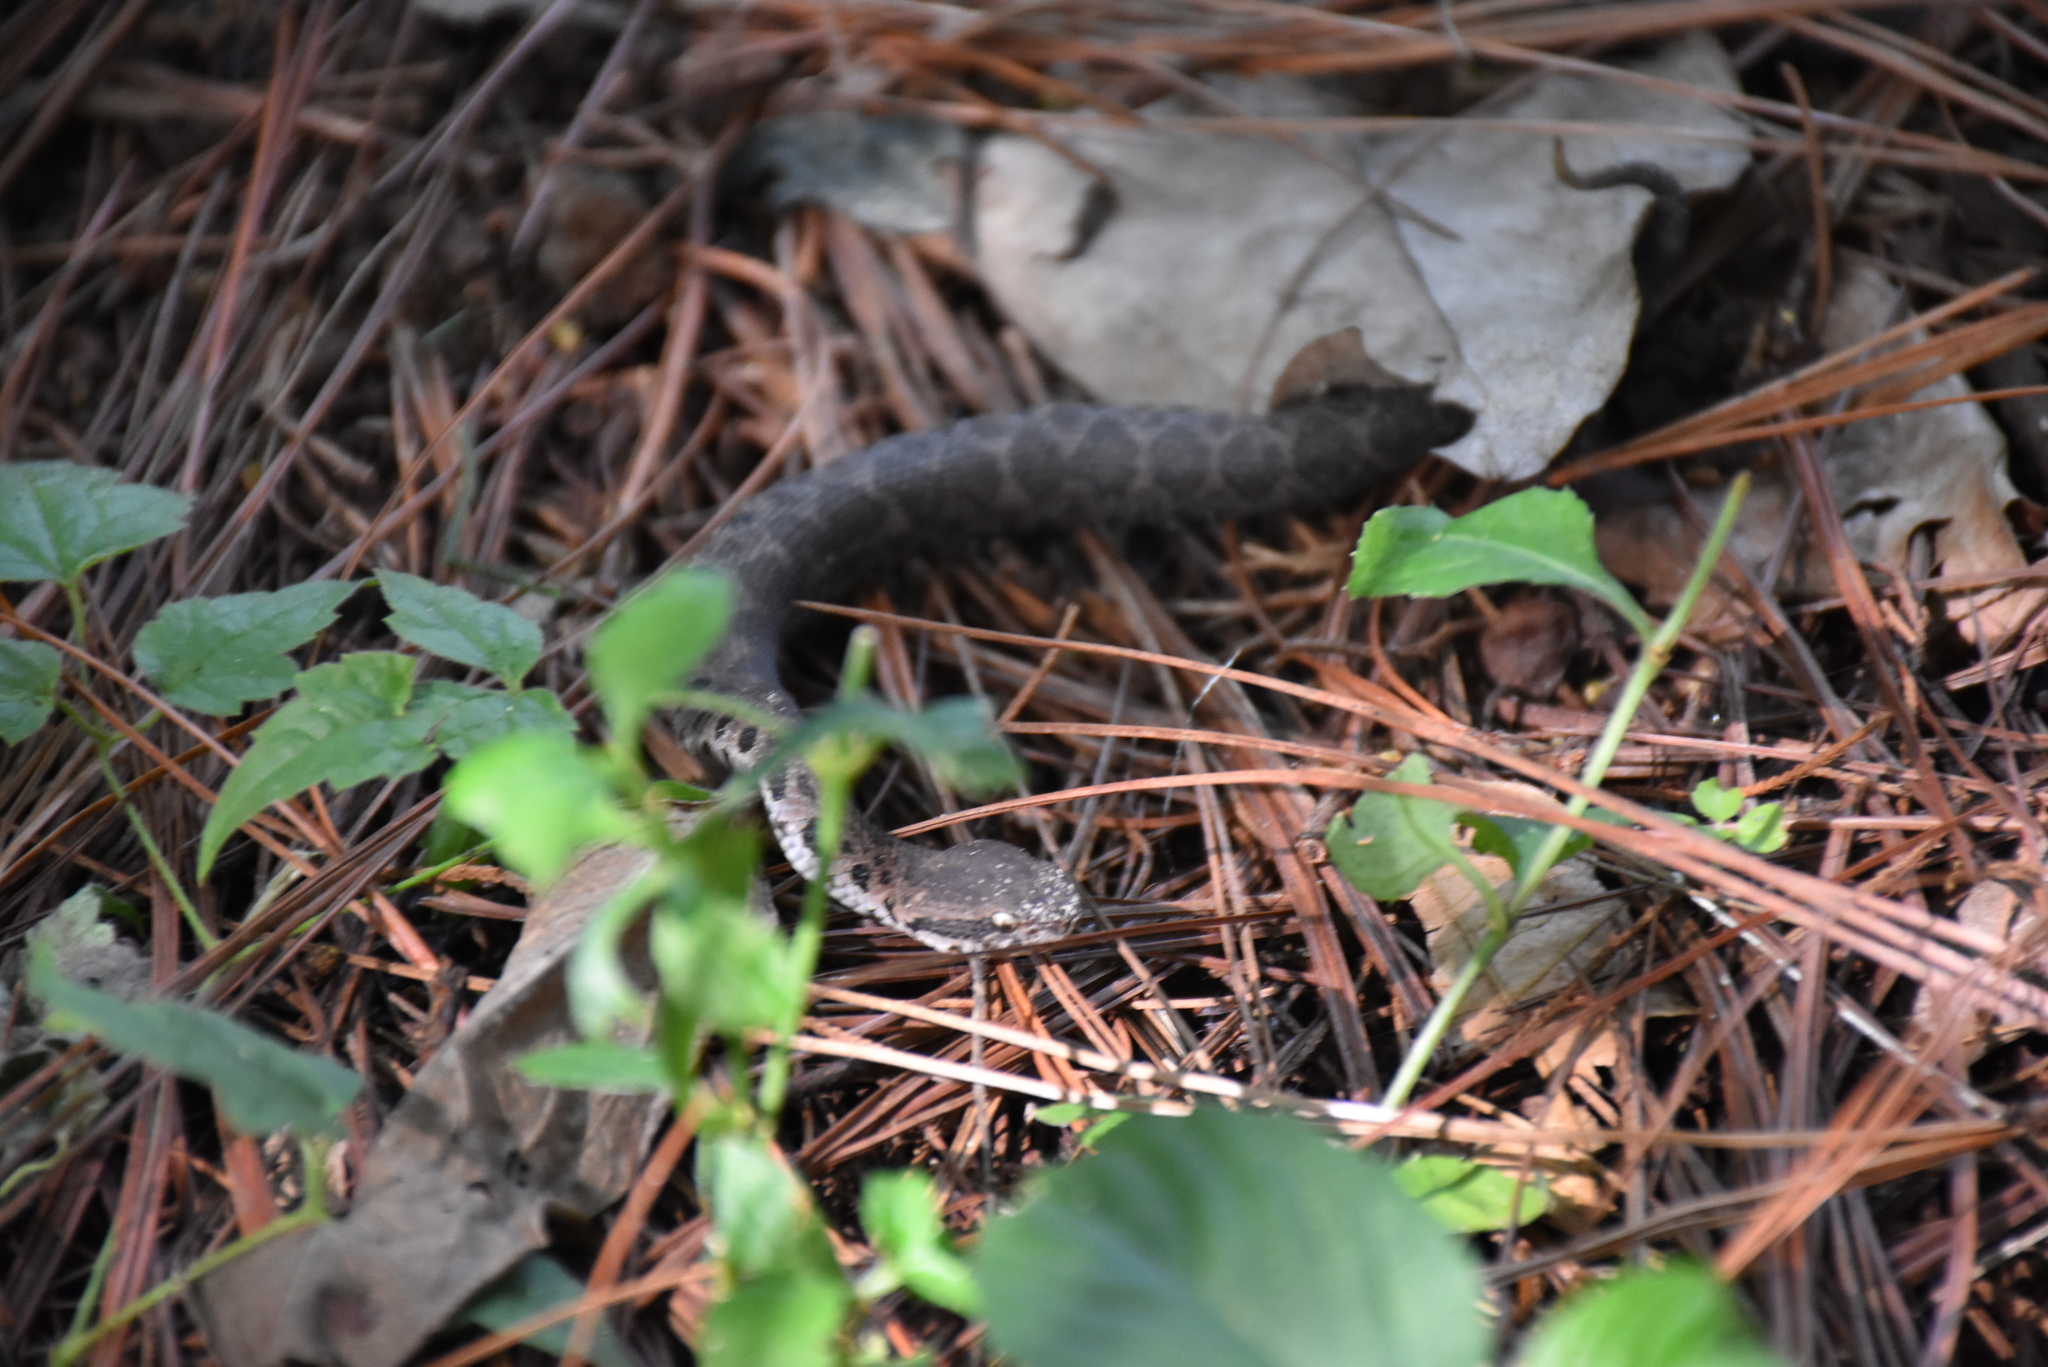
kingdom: Animalia
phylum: Chordata
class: Squamata
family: Viperidae
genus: Metlapilcoatlus
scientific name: Metlapilcoatlus occiduus
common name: Western jumping pitviper
